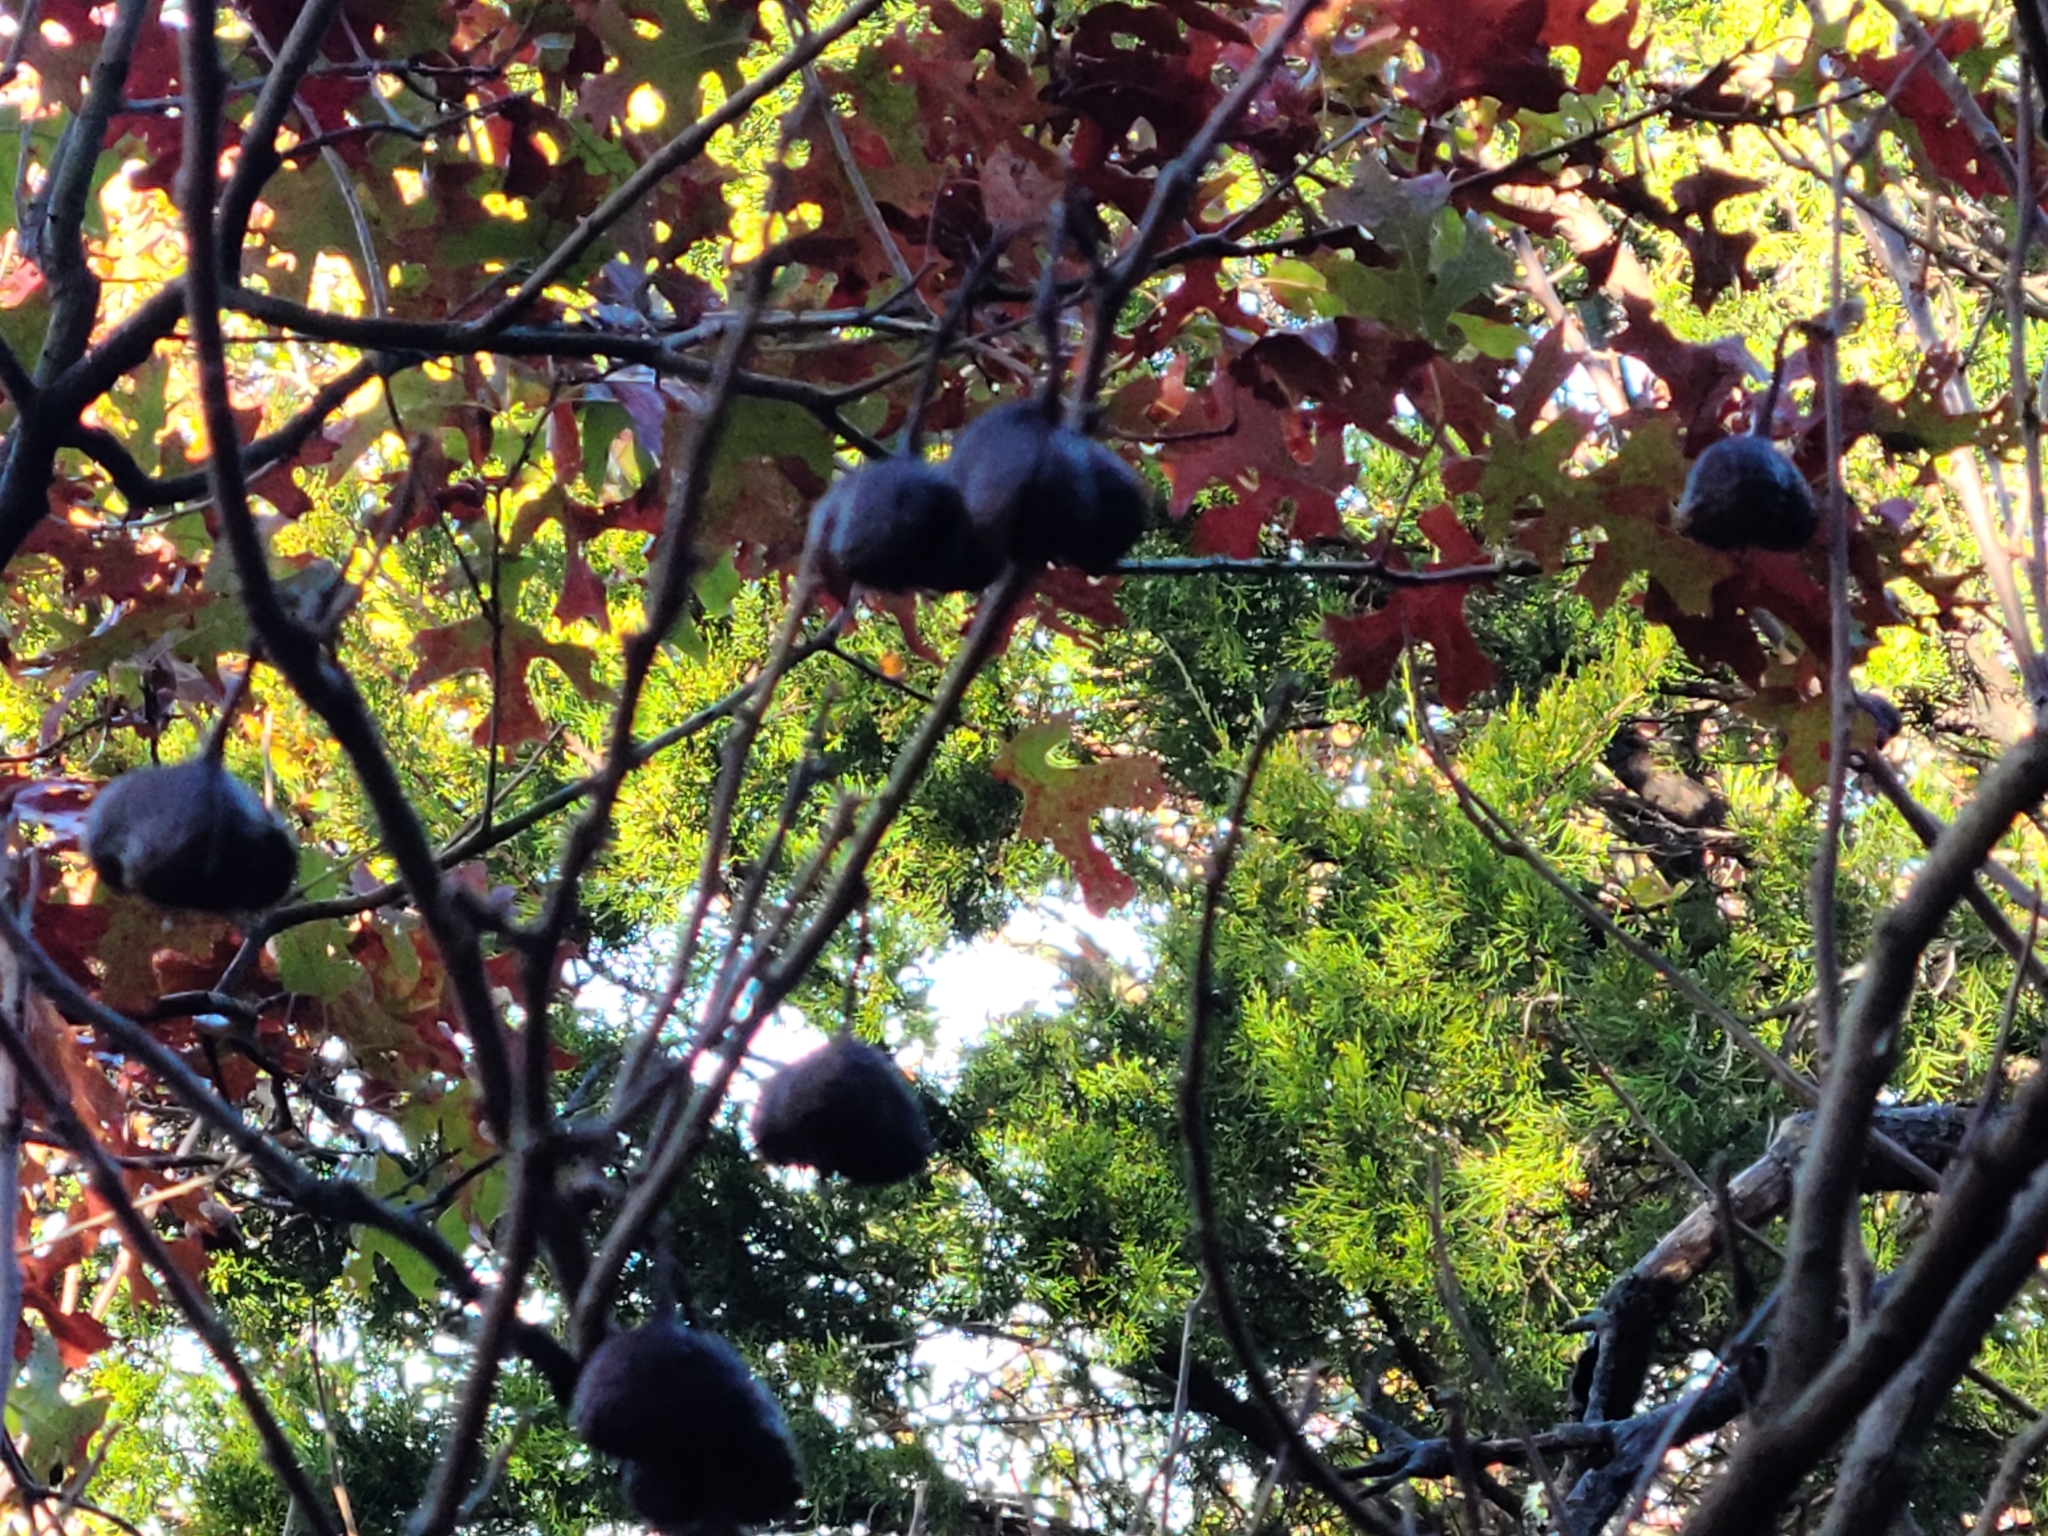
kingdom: Plantae
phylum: Tracheophyta
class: Magnoliopsida
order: Sapindales
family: Sapindaceae
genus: Ungnadia
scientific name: Ungnadia speciosa
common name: Texas-buckeye
